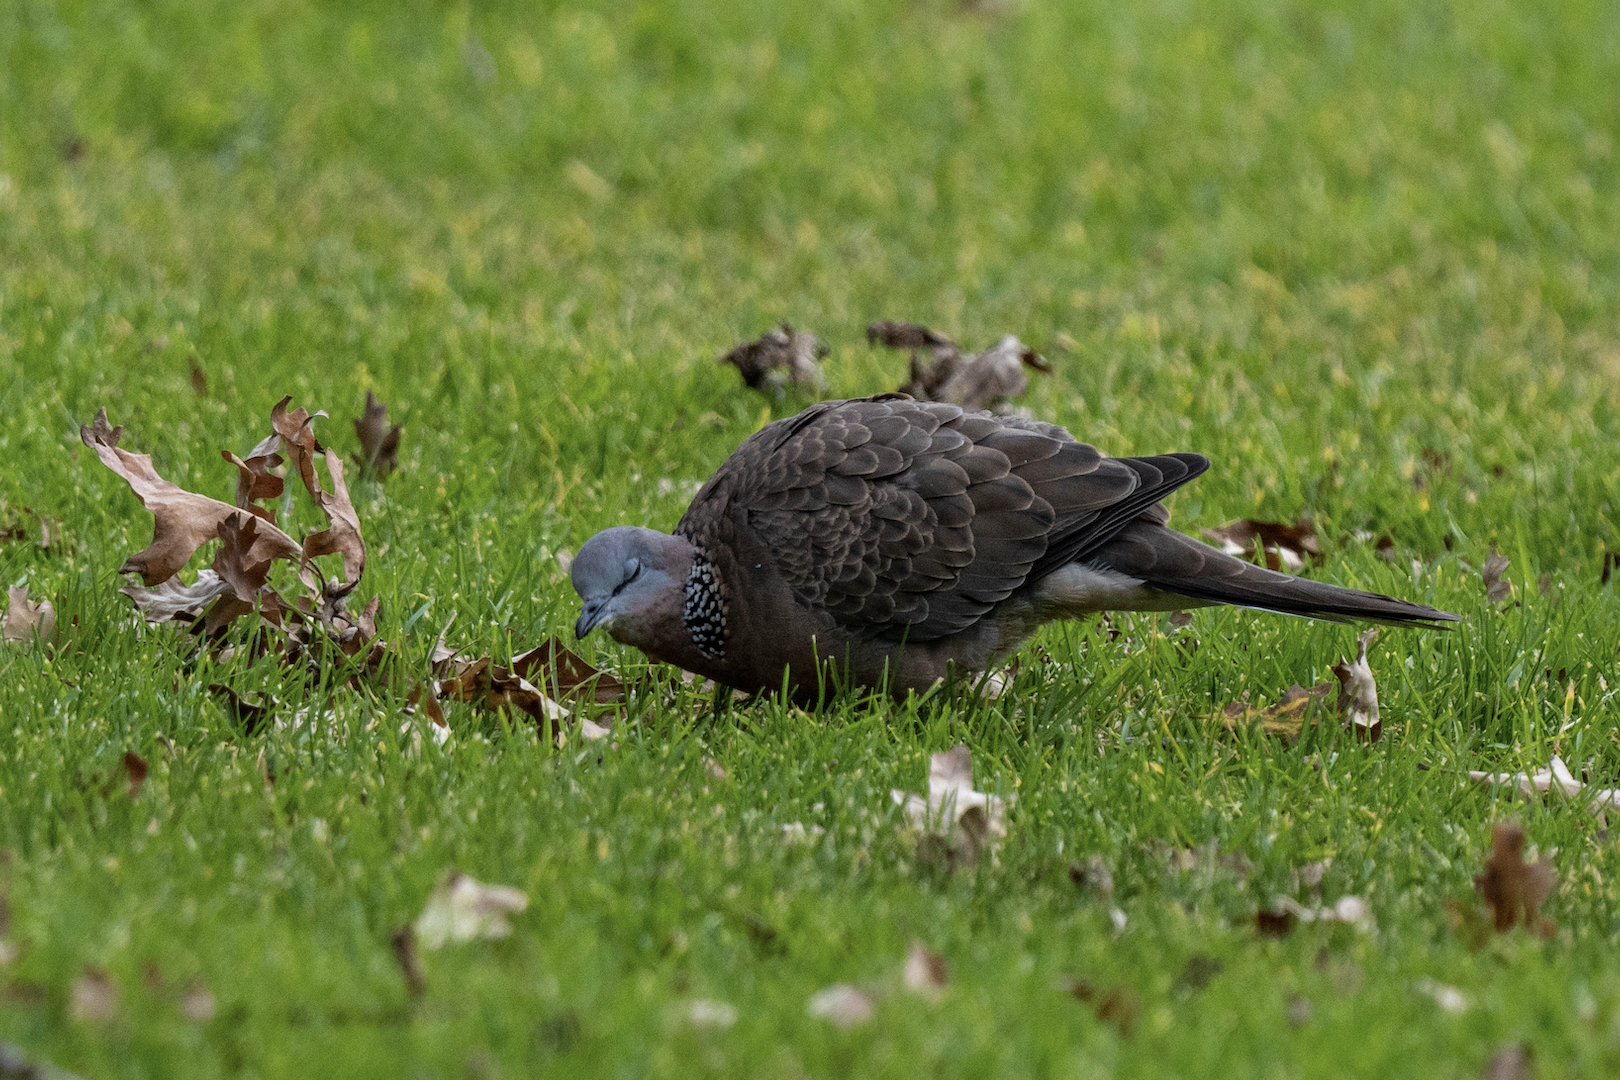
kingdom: Animalia
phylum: Chordata
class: Aves
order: Columbiformes
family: Columbidae
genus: Spilopelia
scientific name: Spilopelia chinensis
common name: Spotted dove
